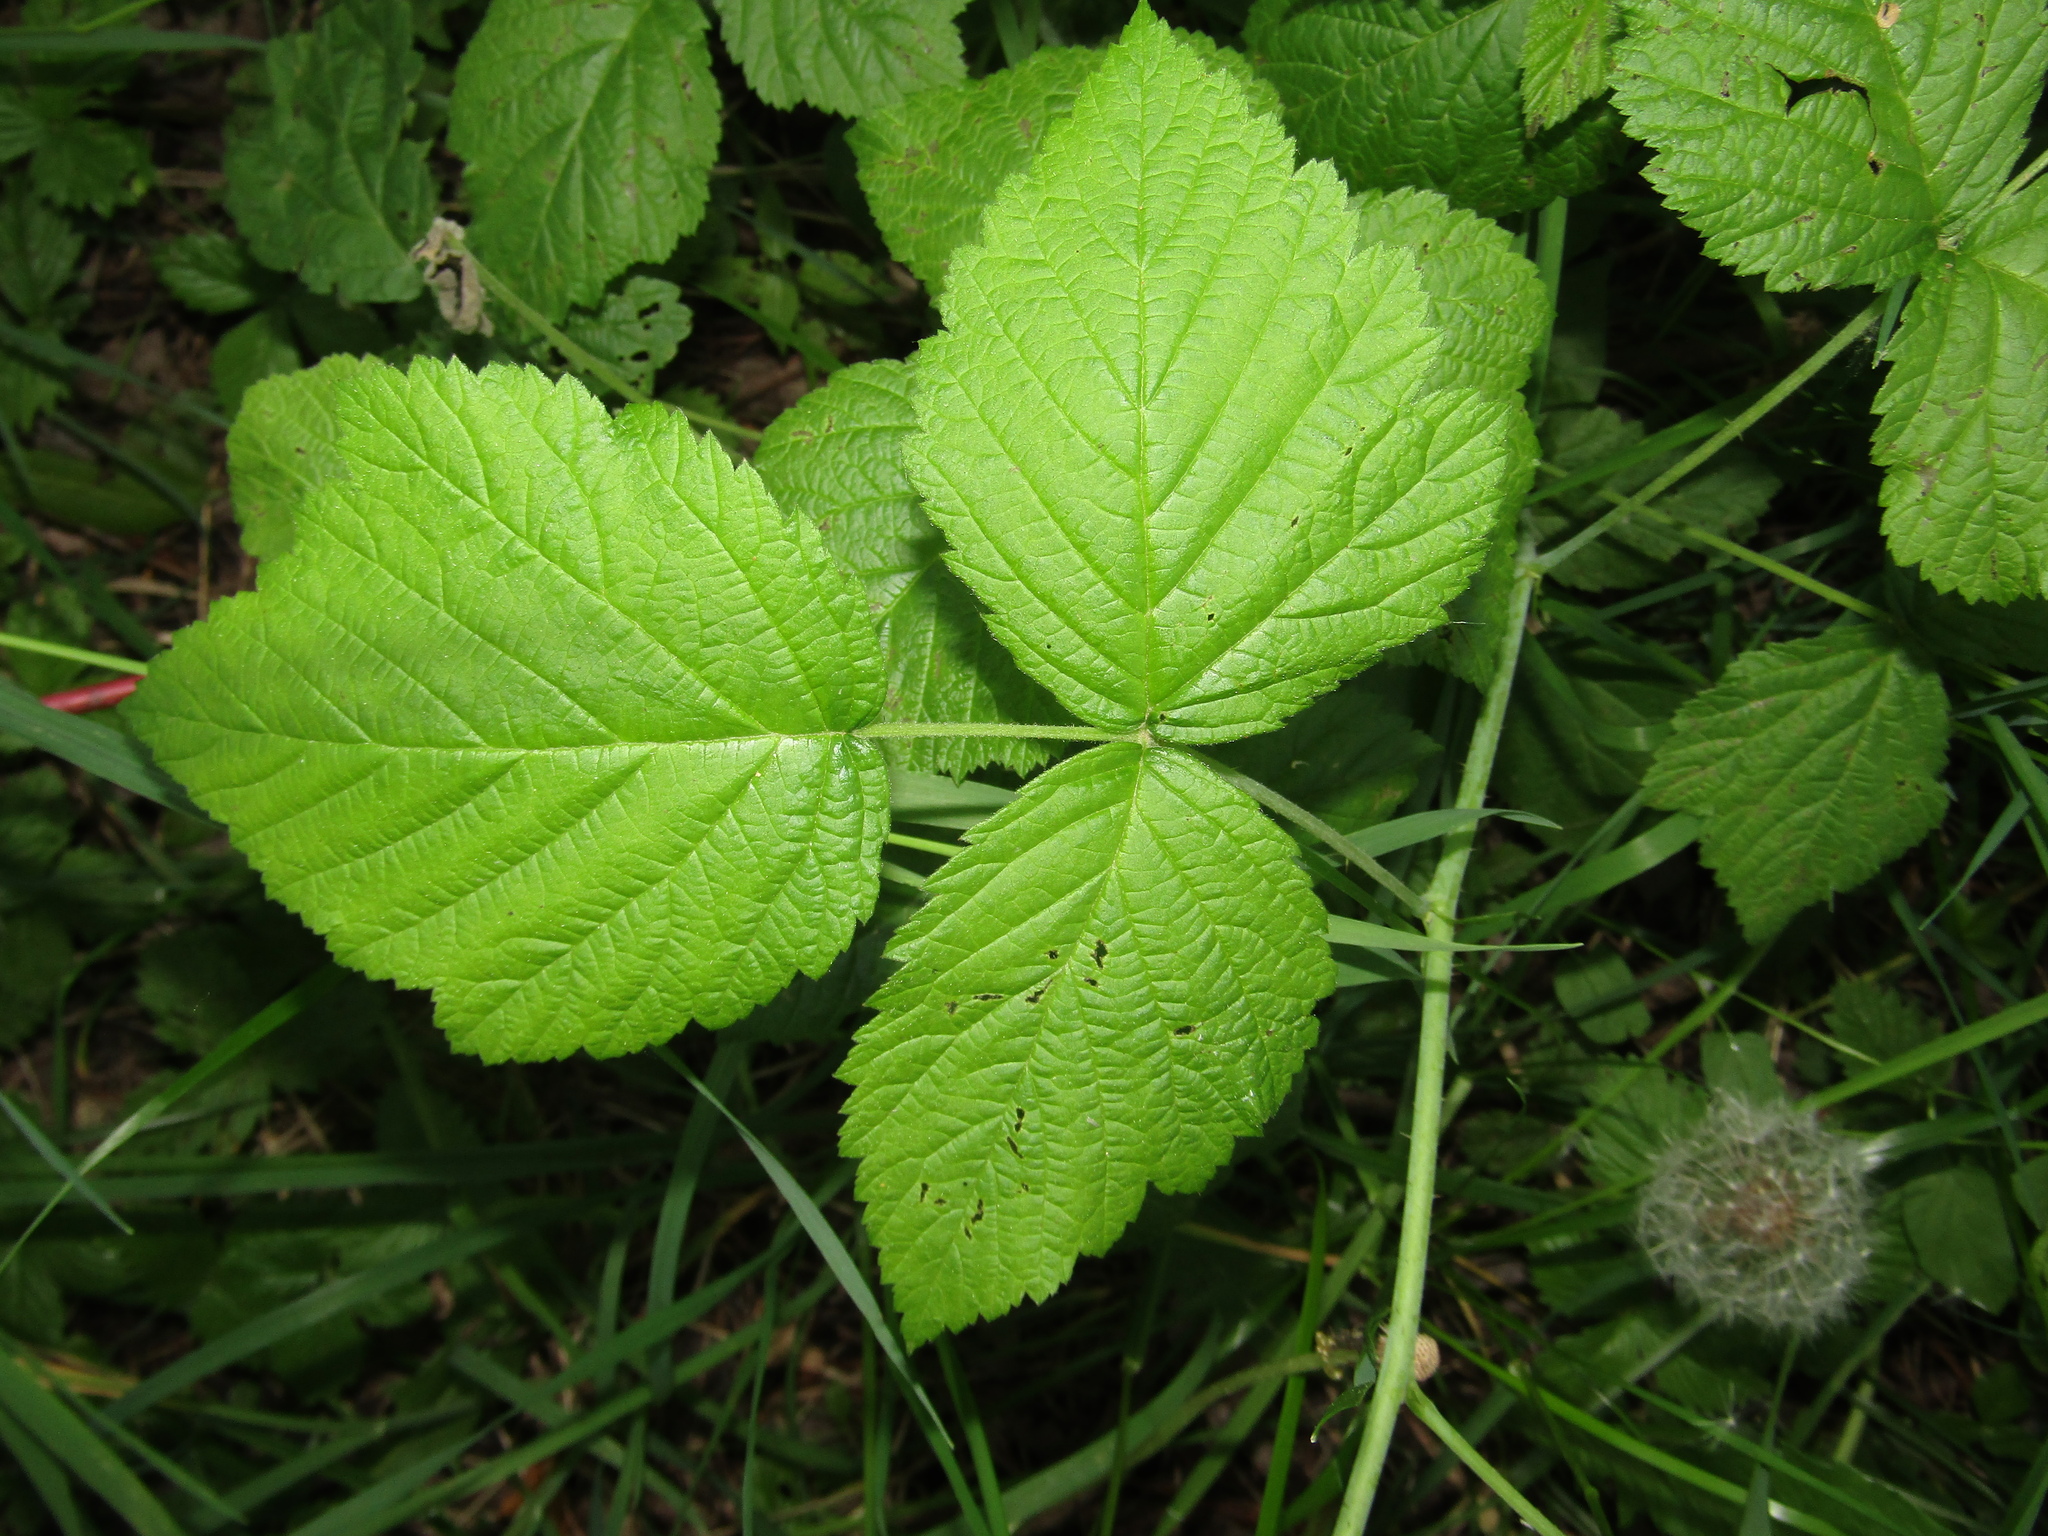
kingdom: Plantae
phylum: Tracheophyta
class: Magnoliopsida
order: Rosales
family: Rosaceae
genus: Rubus
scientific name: Rubus caesius
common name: Dewberry
